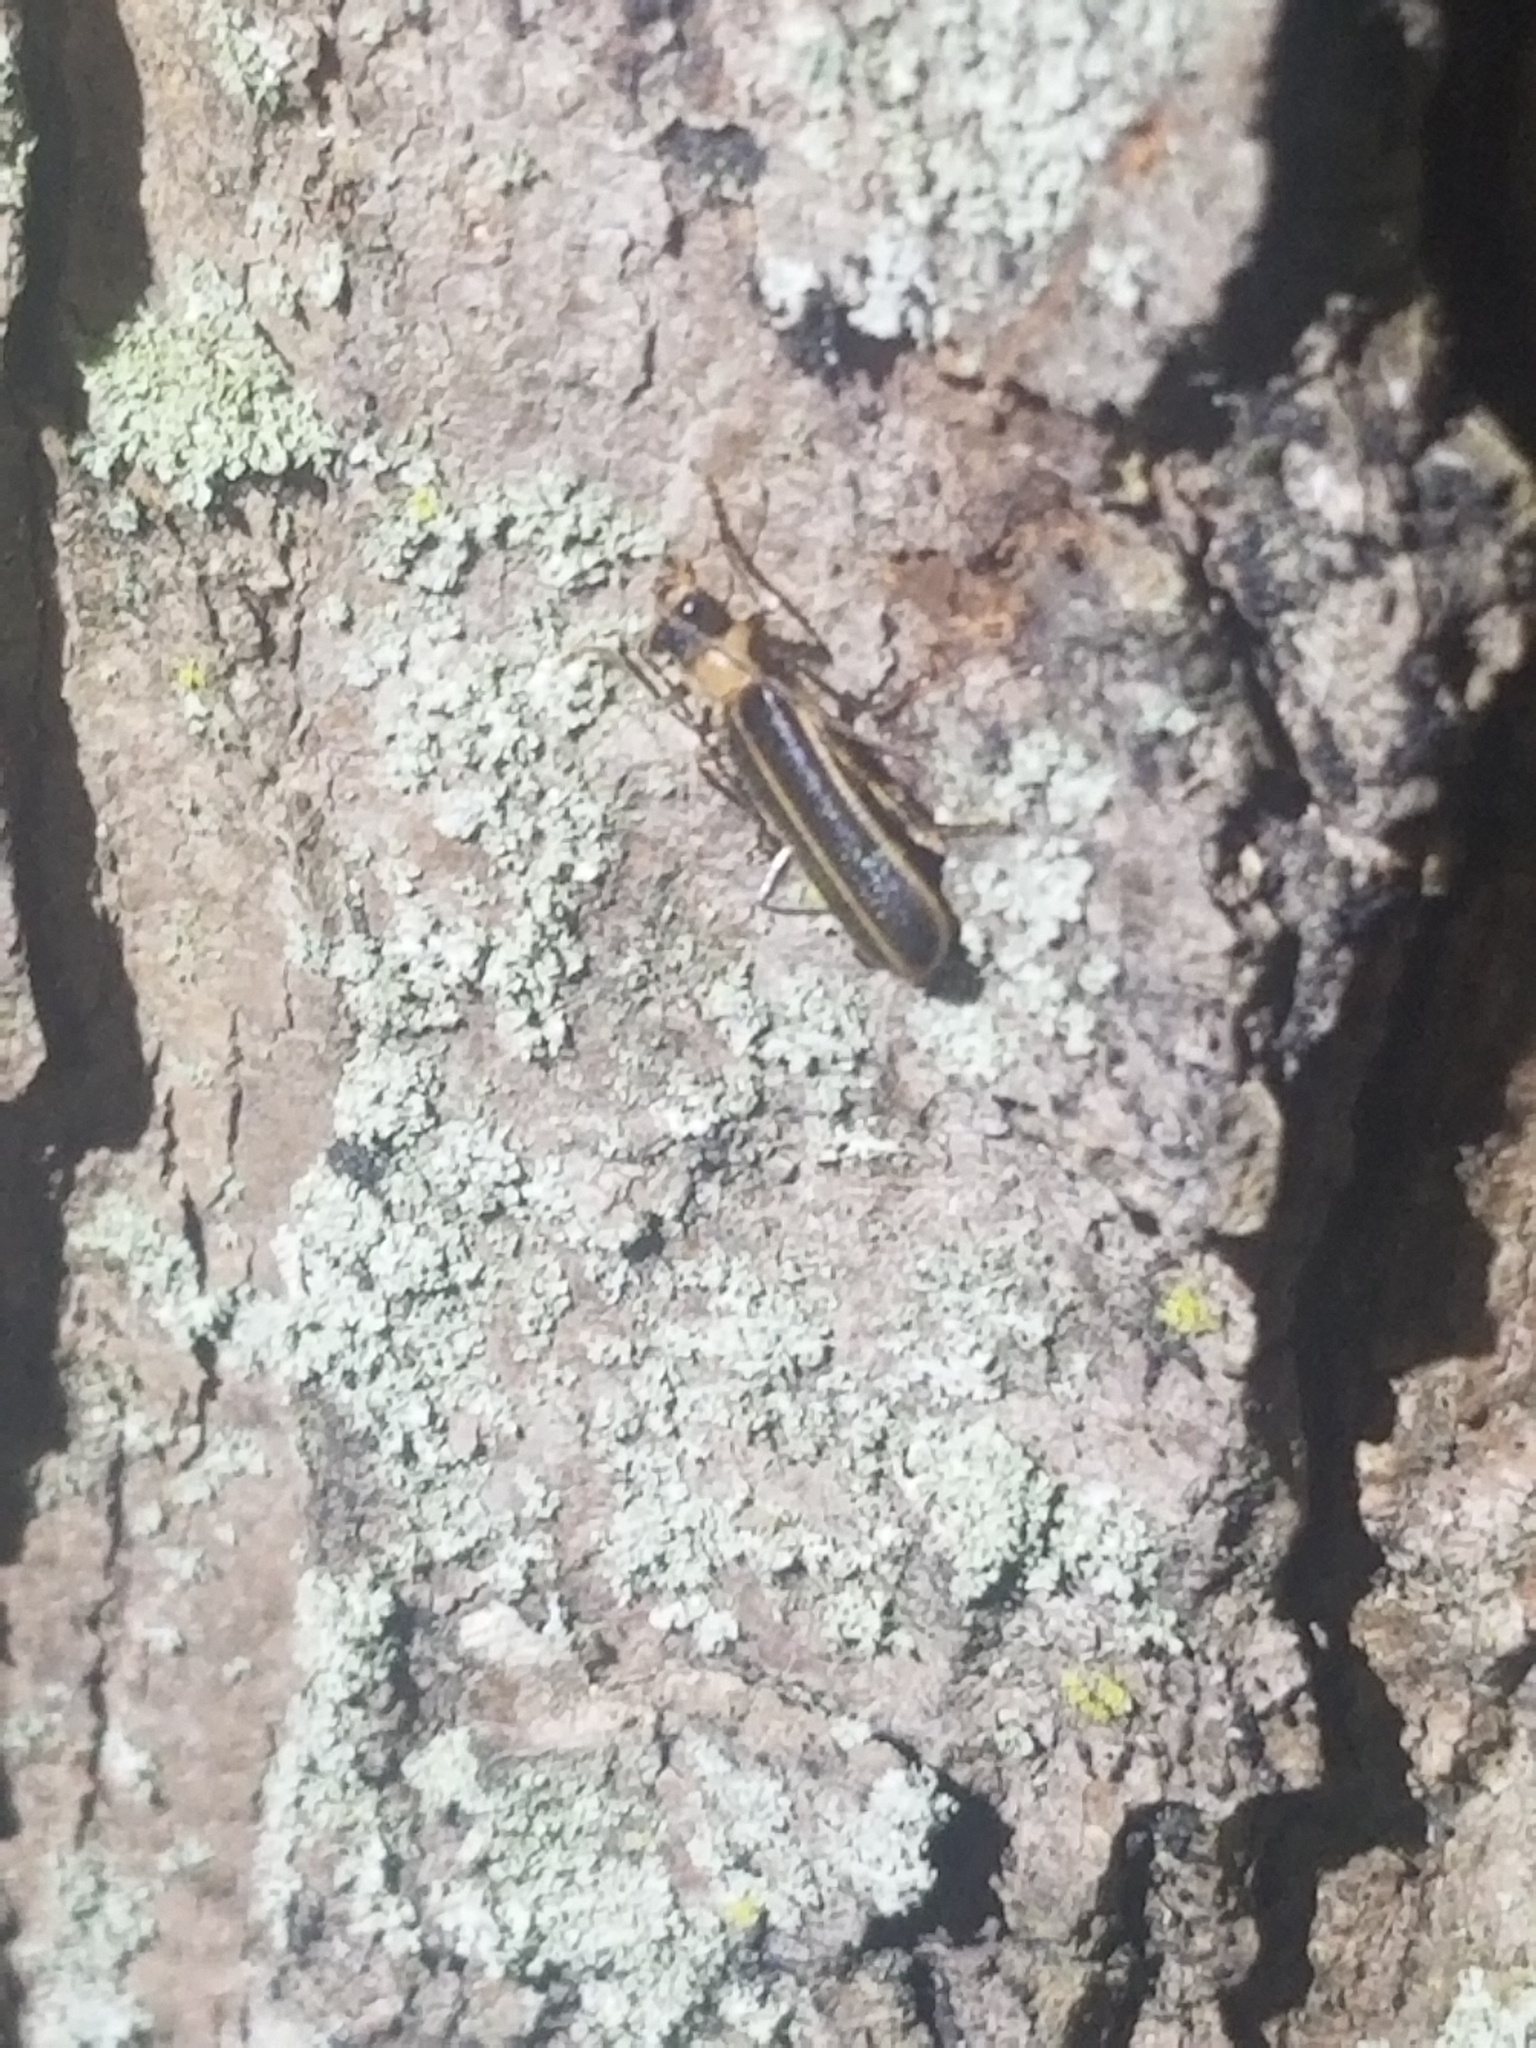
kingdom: Animalia
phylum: Arthropoda
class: Insecta
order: Coleoptera
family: Cantharidae
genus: Podabrus
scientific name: Podabrus flavicollis
